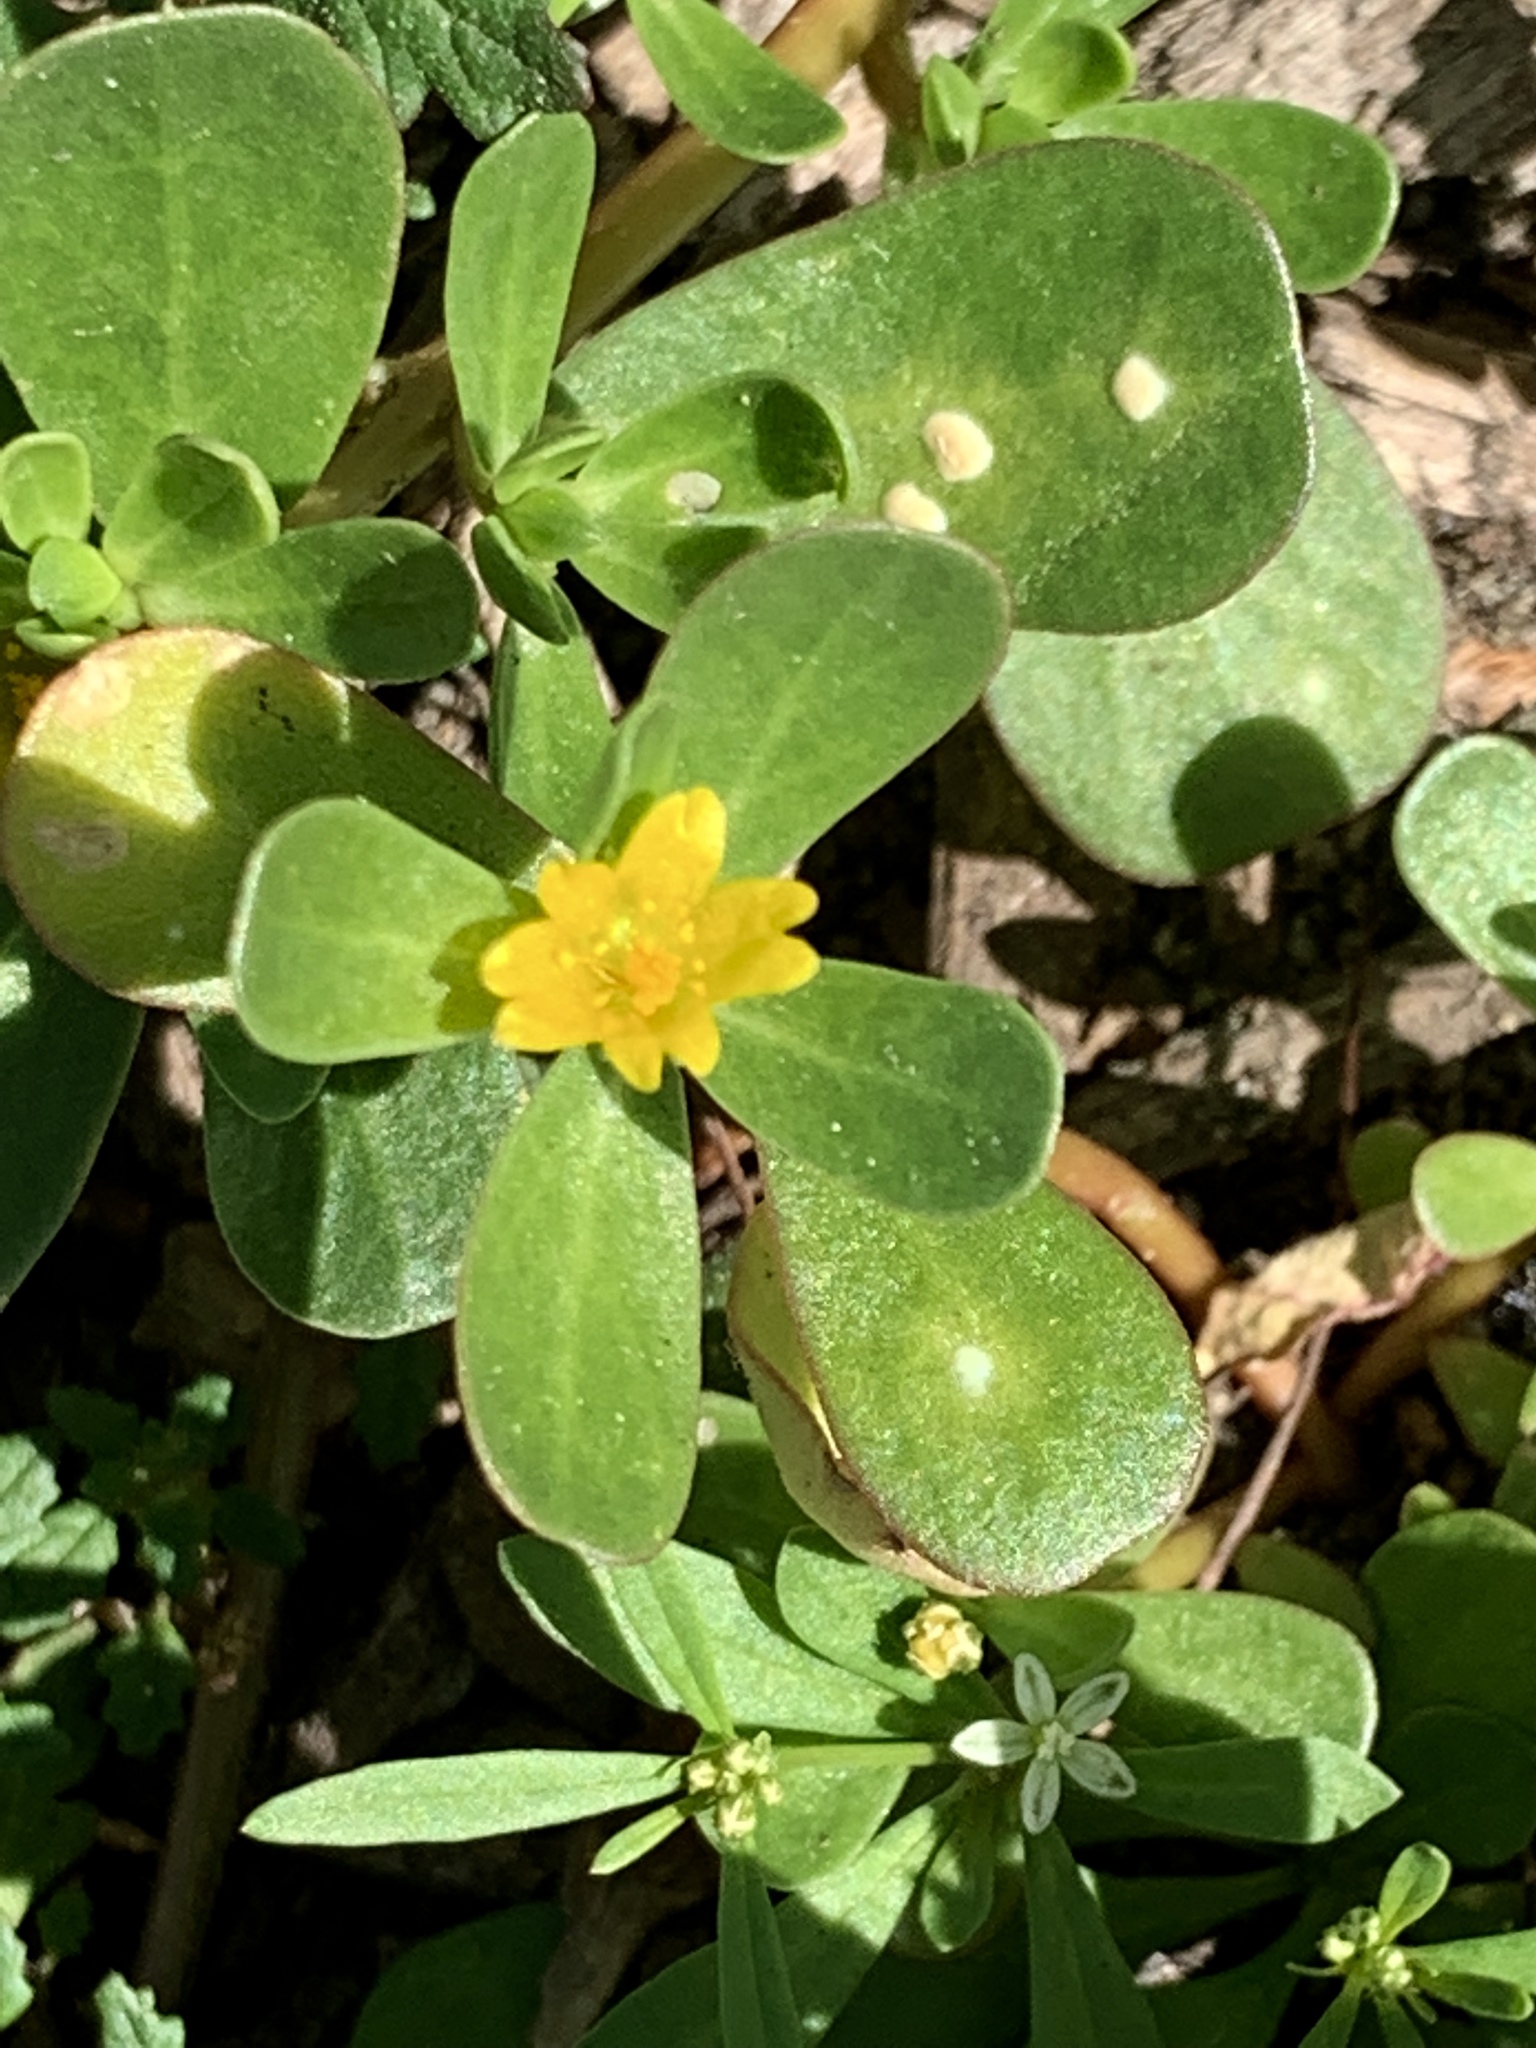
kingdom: Plantae
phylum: Tracheophyta
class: Magnoliopsida
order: Caryophyllales
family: Portulacaceae
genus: Portulaca
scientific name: Portulaca oleracea
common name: Common purslane
